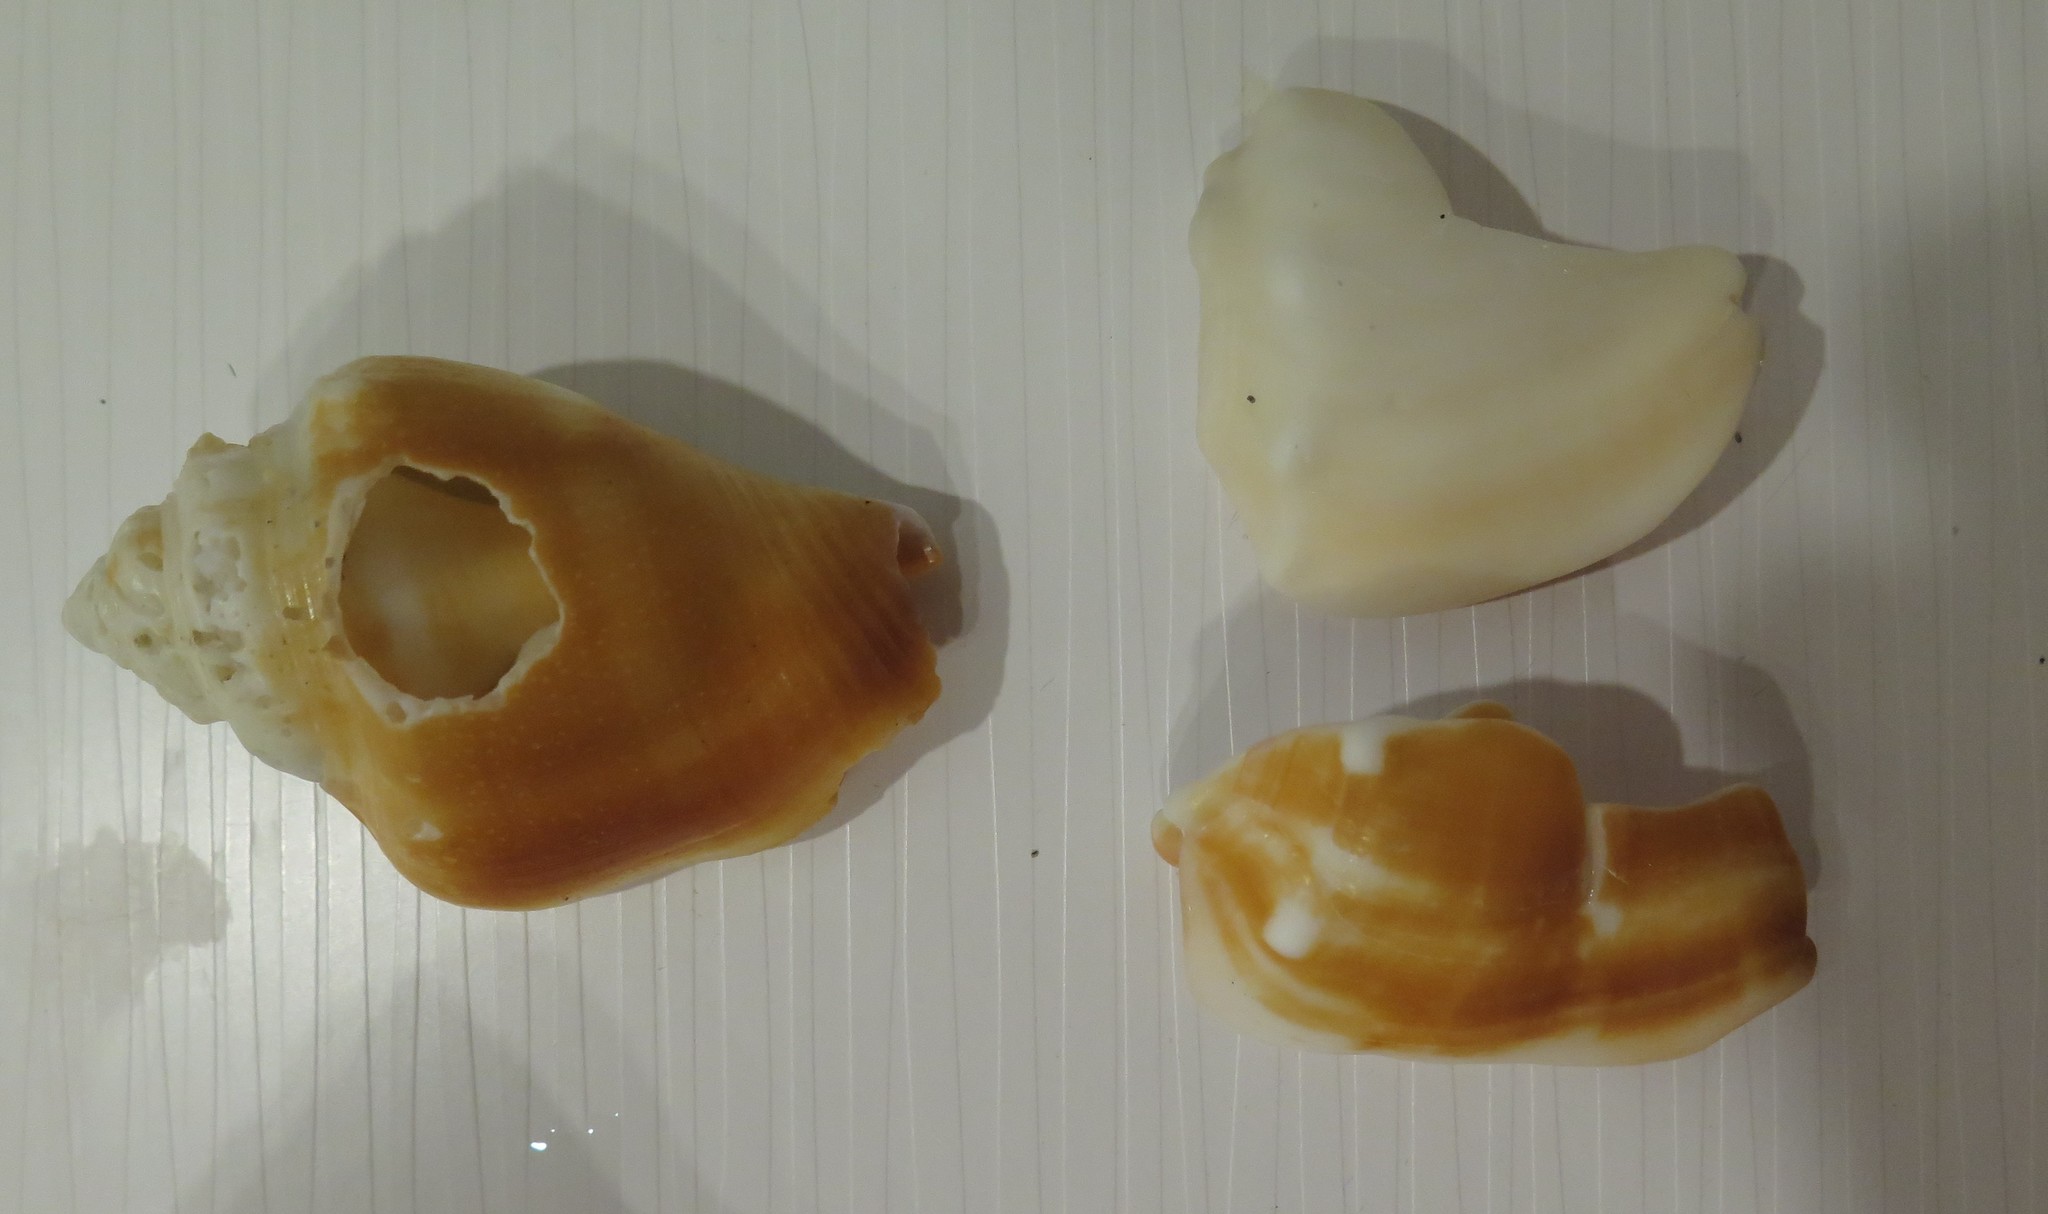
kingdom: Animalia
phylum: Mollusca
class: Gastropoda
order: Littorinimorpha
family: Strombidae
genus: Strombus
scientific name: Strombus alatus
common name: Florida fighting conch
